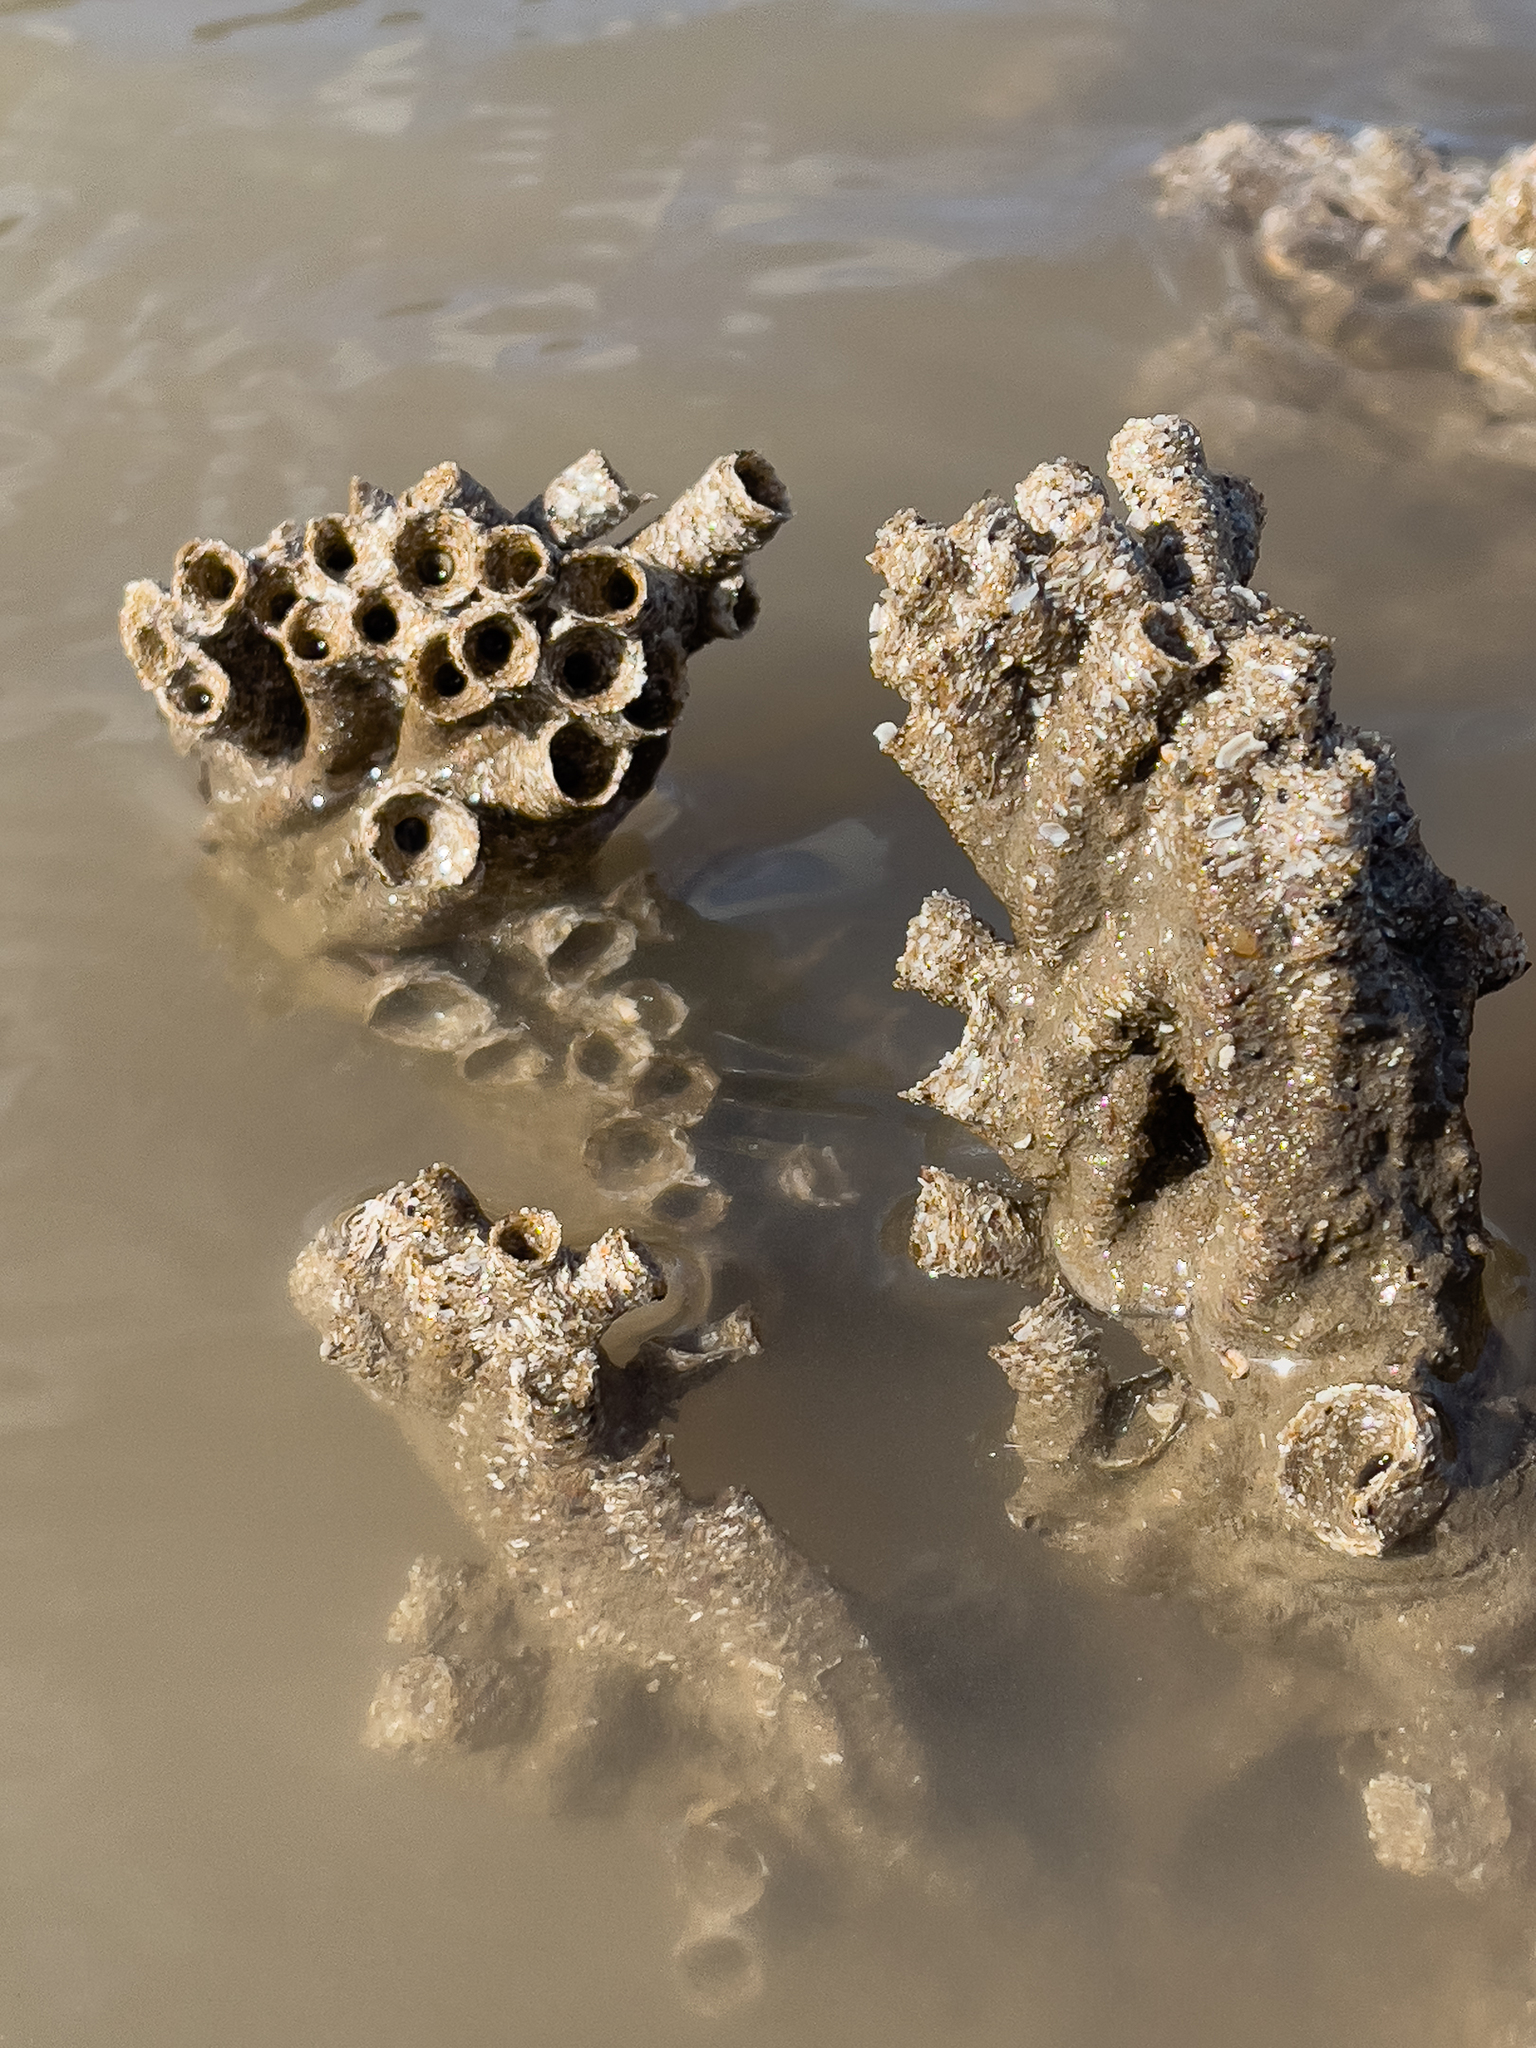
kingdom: Animalia
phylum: Annelida
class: Polychaeta
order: Sabellida
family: Sabellariidae
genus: Sabellaria
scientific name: Sabellaria alveolata
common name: Honeycomb worm
